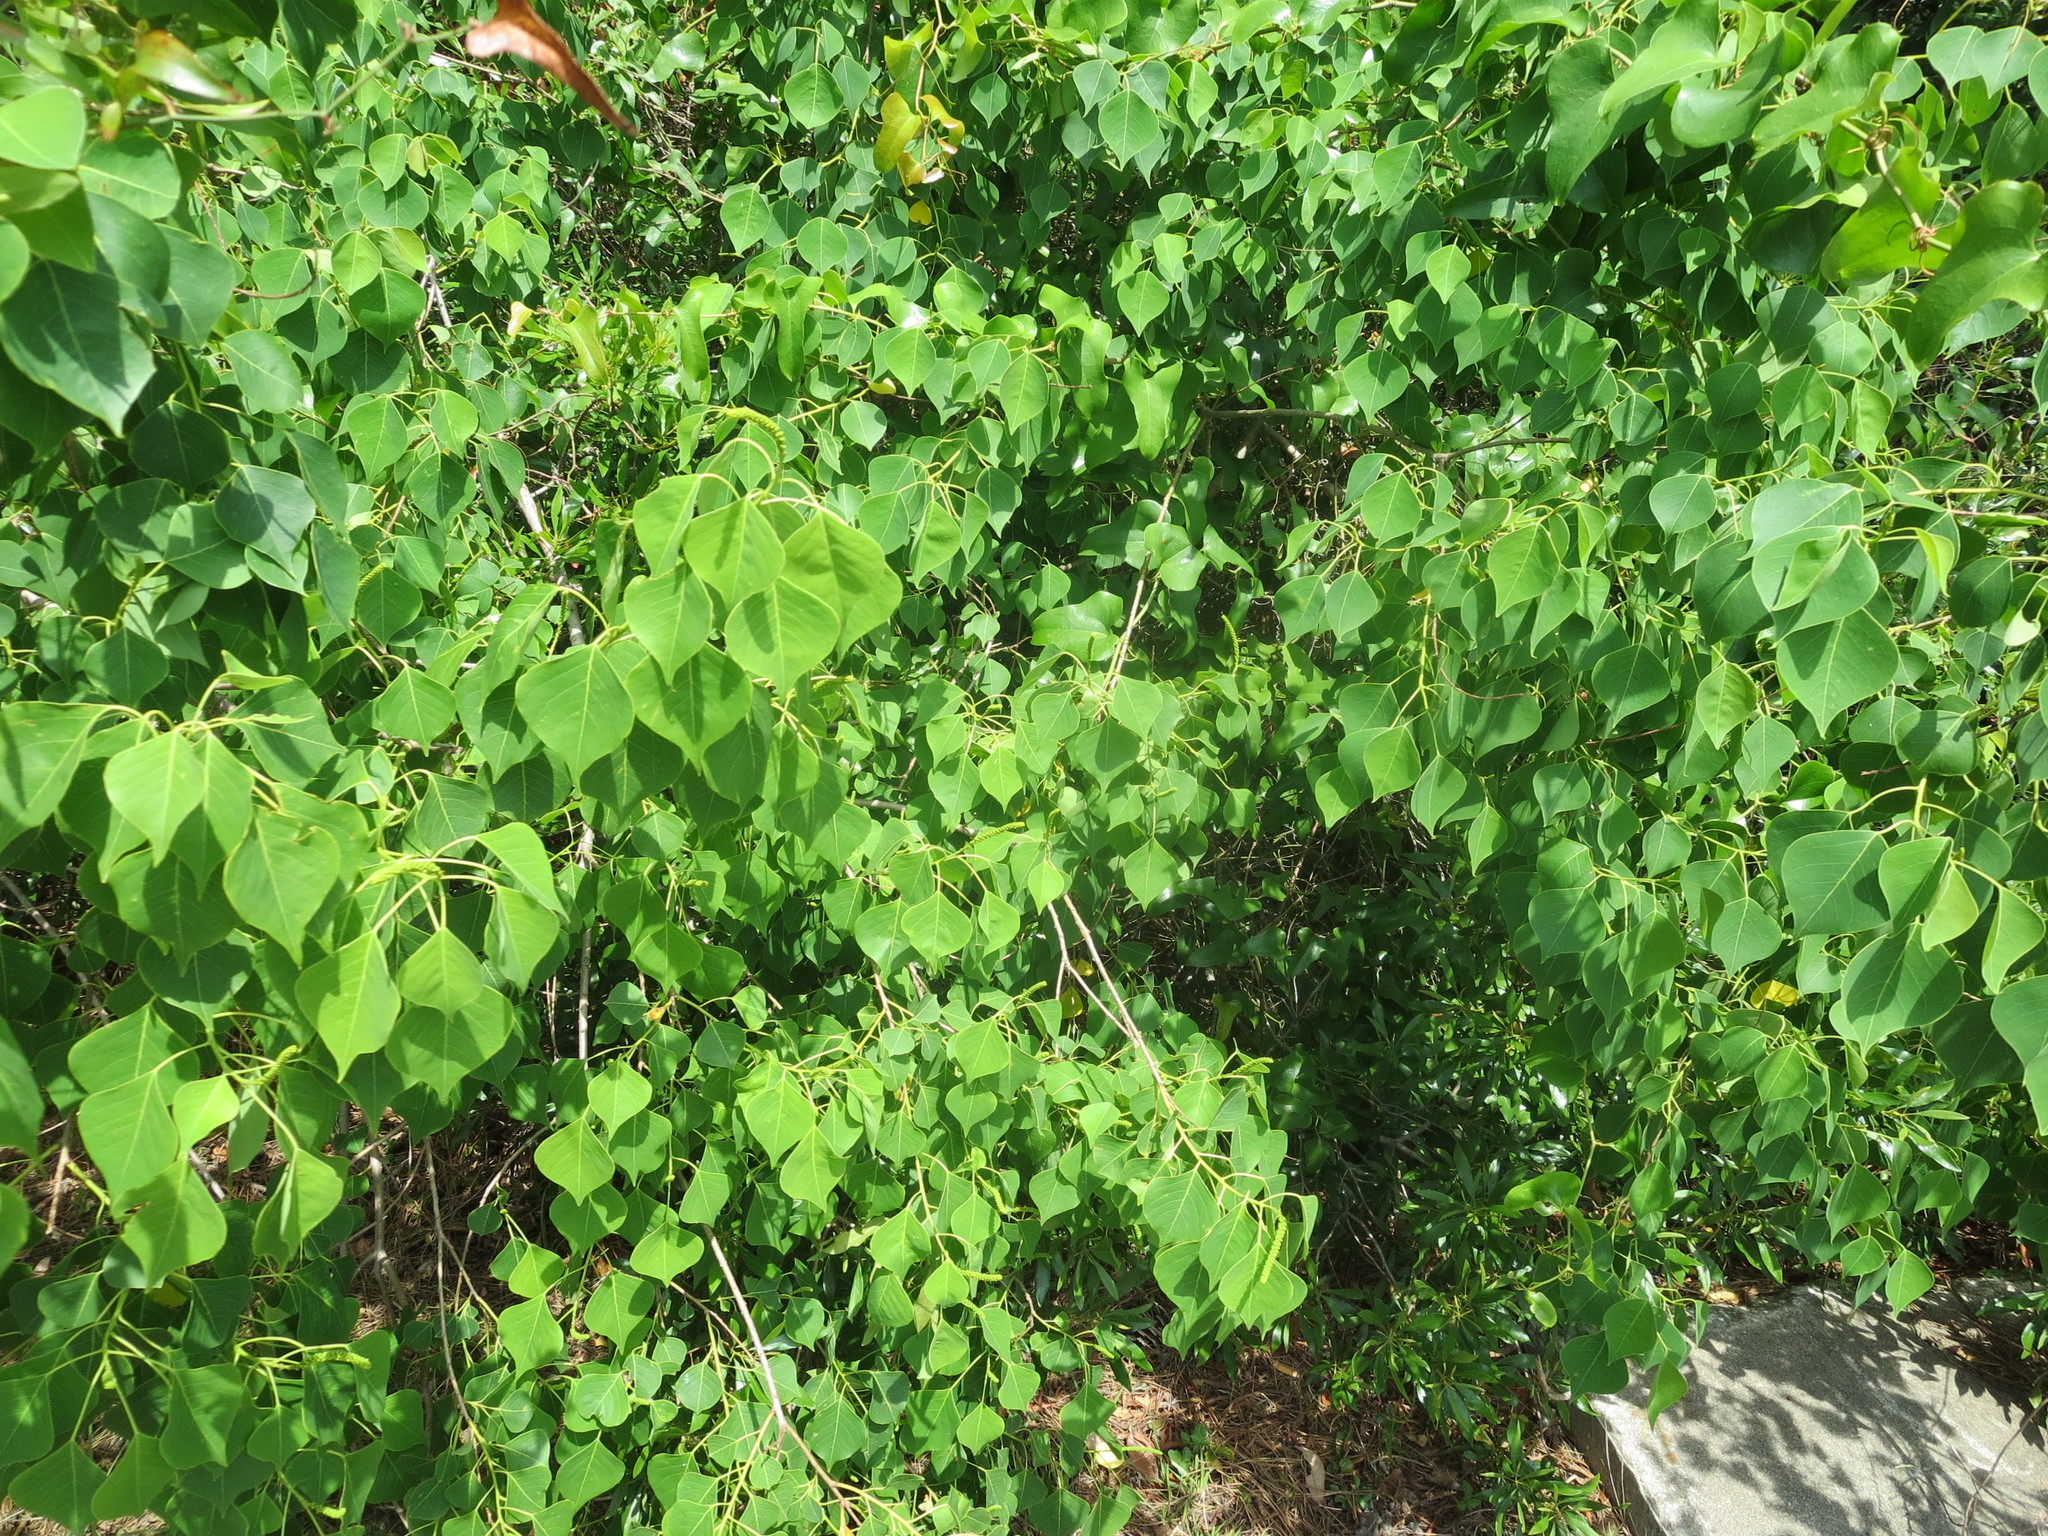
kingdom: Plantae
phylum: Tracheophyta
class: Magnoliopsida
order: Malpighiales
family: Euphorbiaceae
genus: Triadica
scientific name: Triadica sebifera
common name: Chinese tallow
